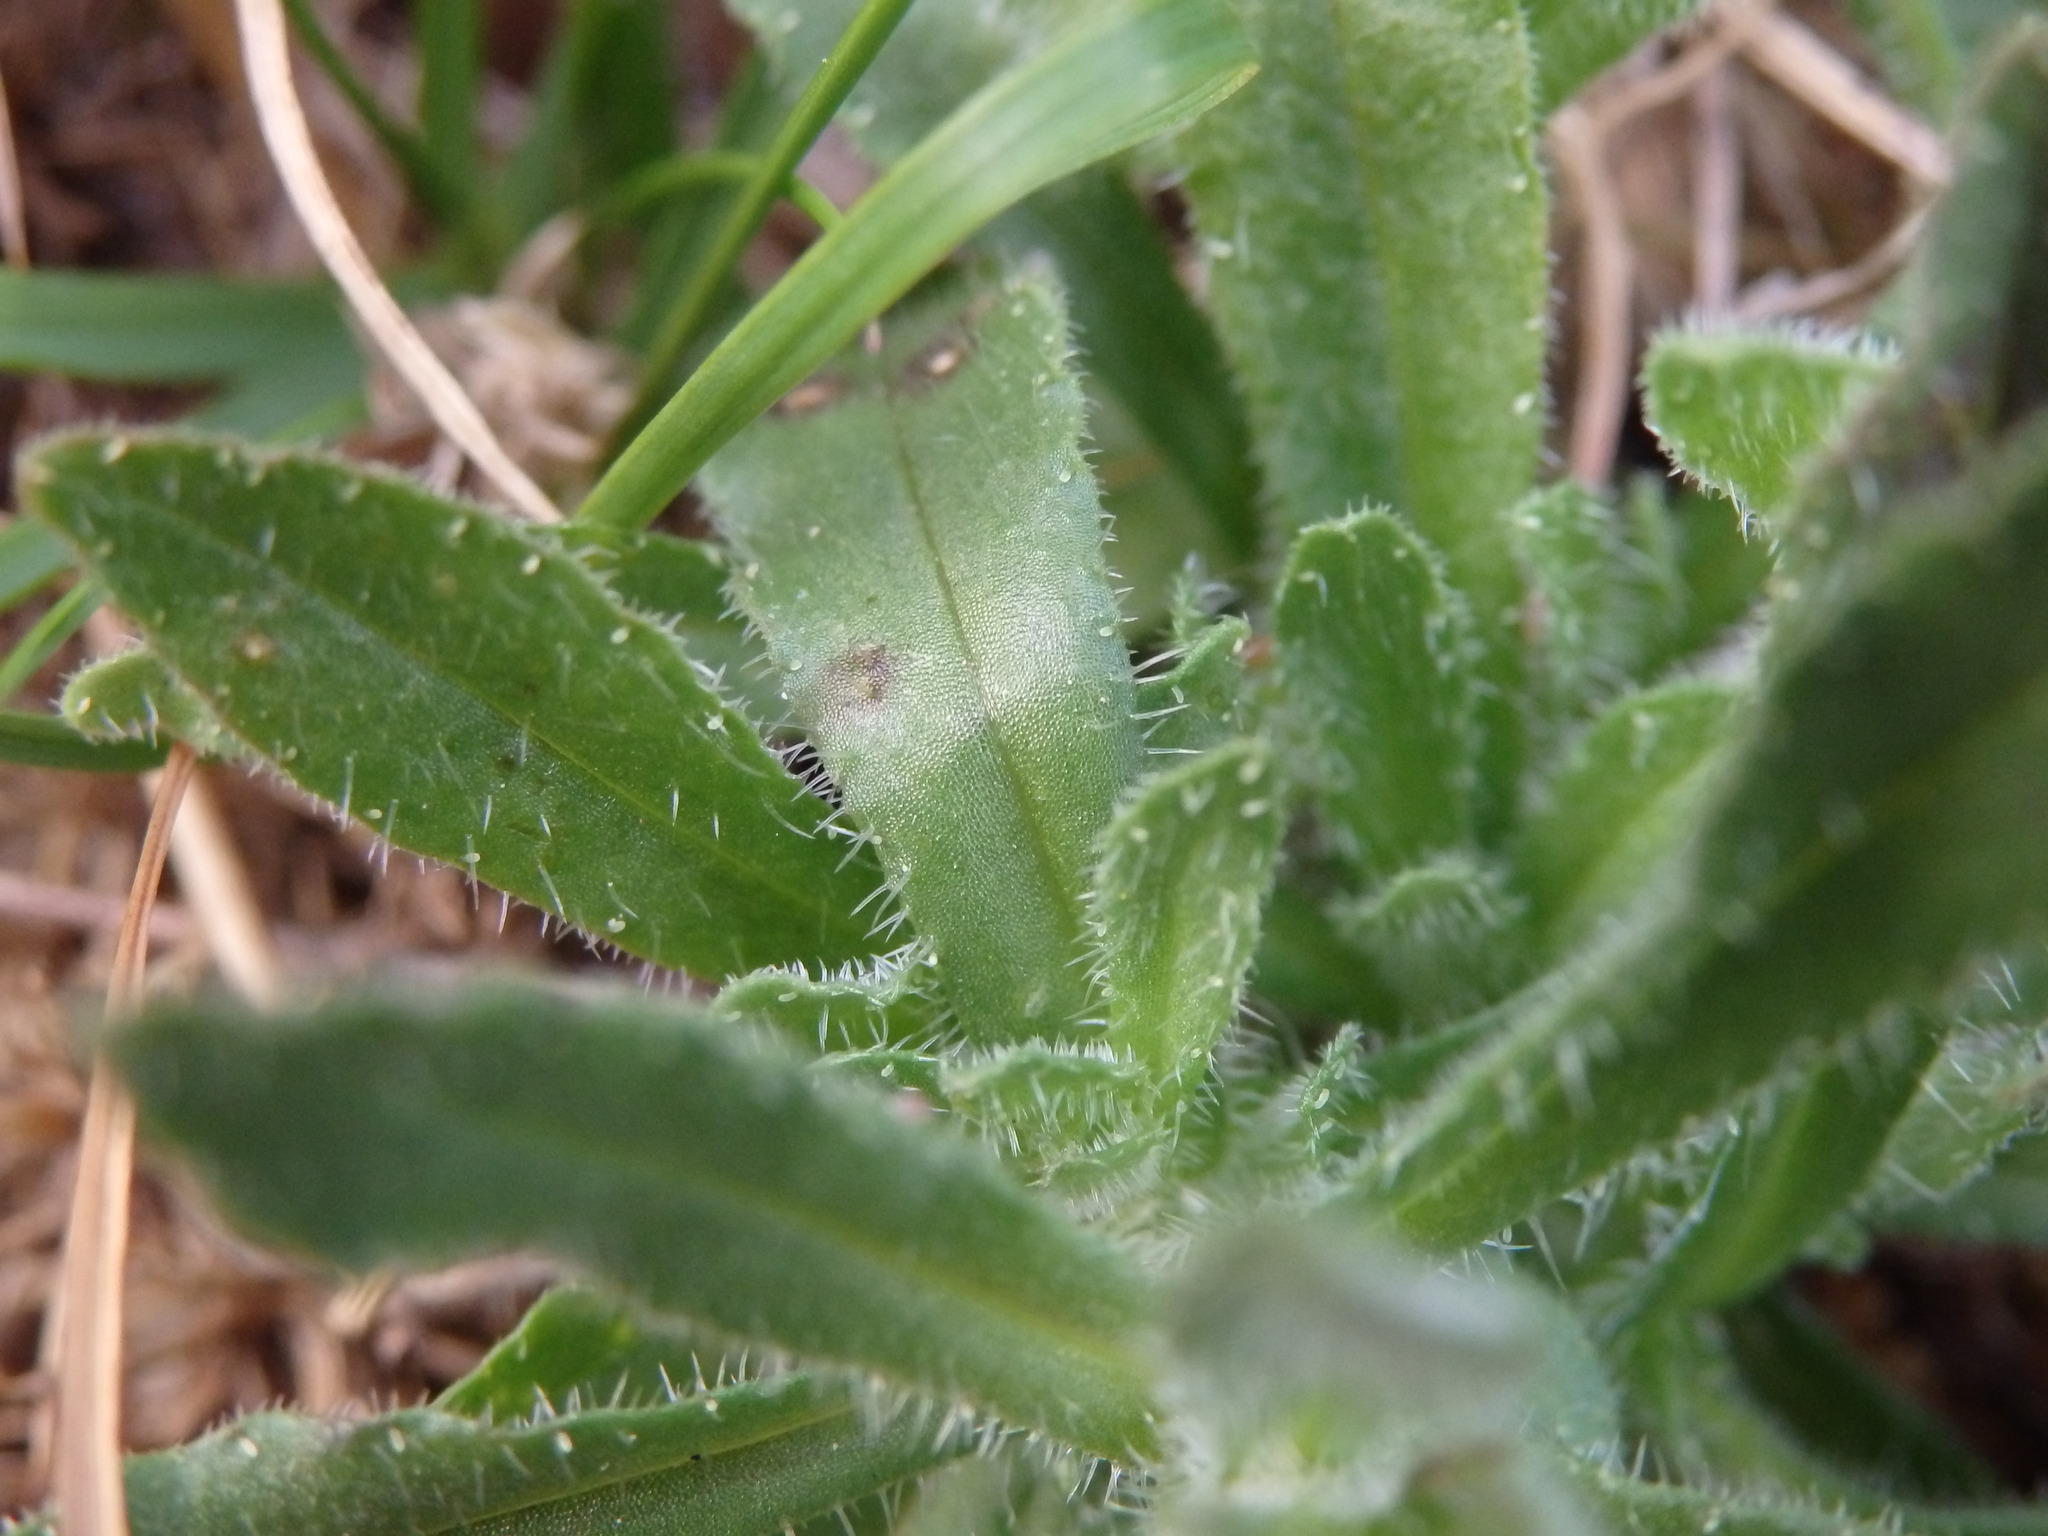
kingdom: Plantae
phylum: Tracheophyta
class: Magnoliopsida
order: Asterales
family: Campanulaceae
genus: Jasione
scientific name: Jasione montana
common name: Sheep's-bit
